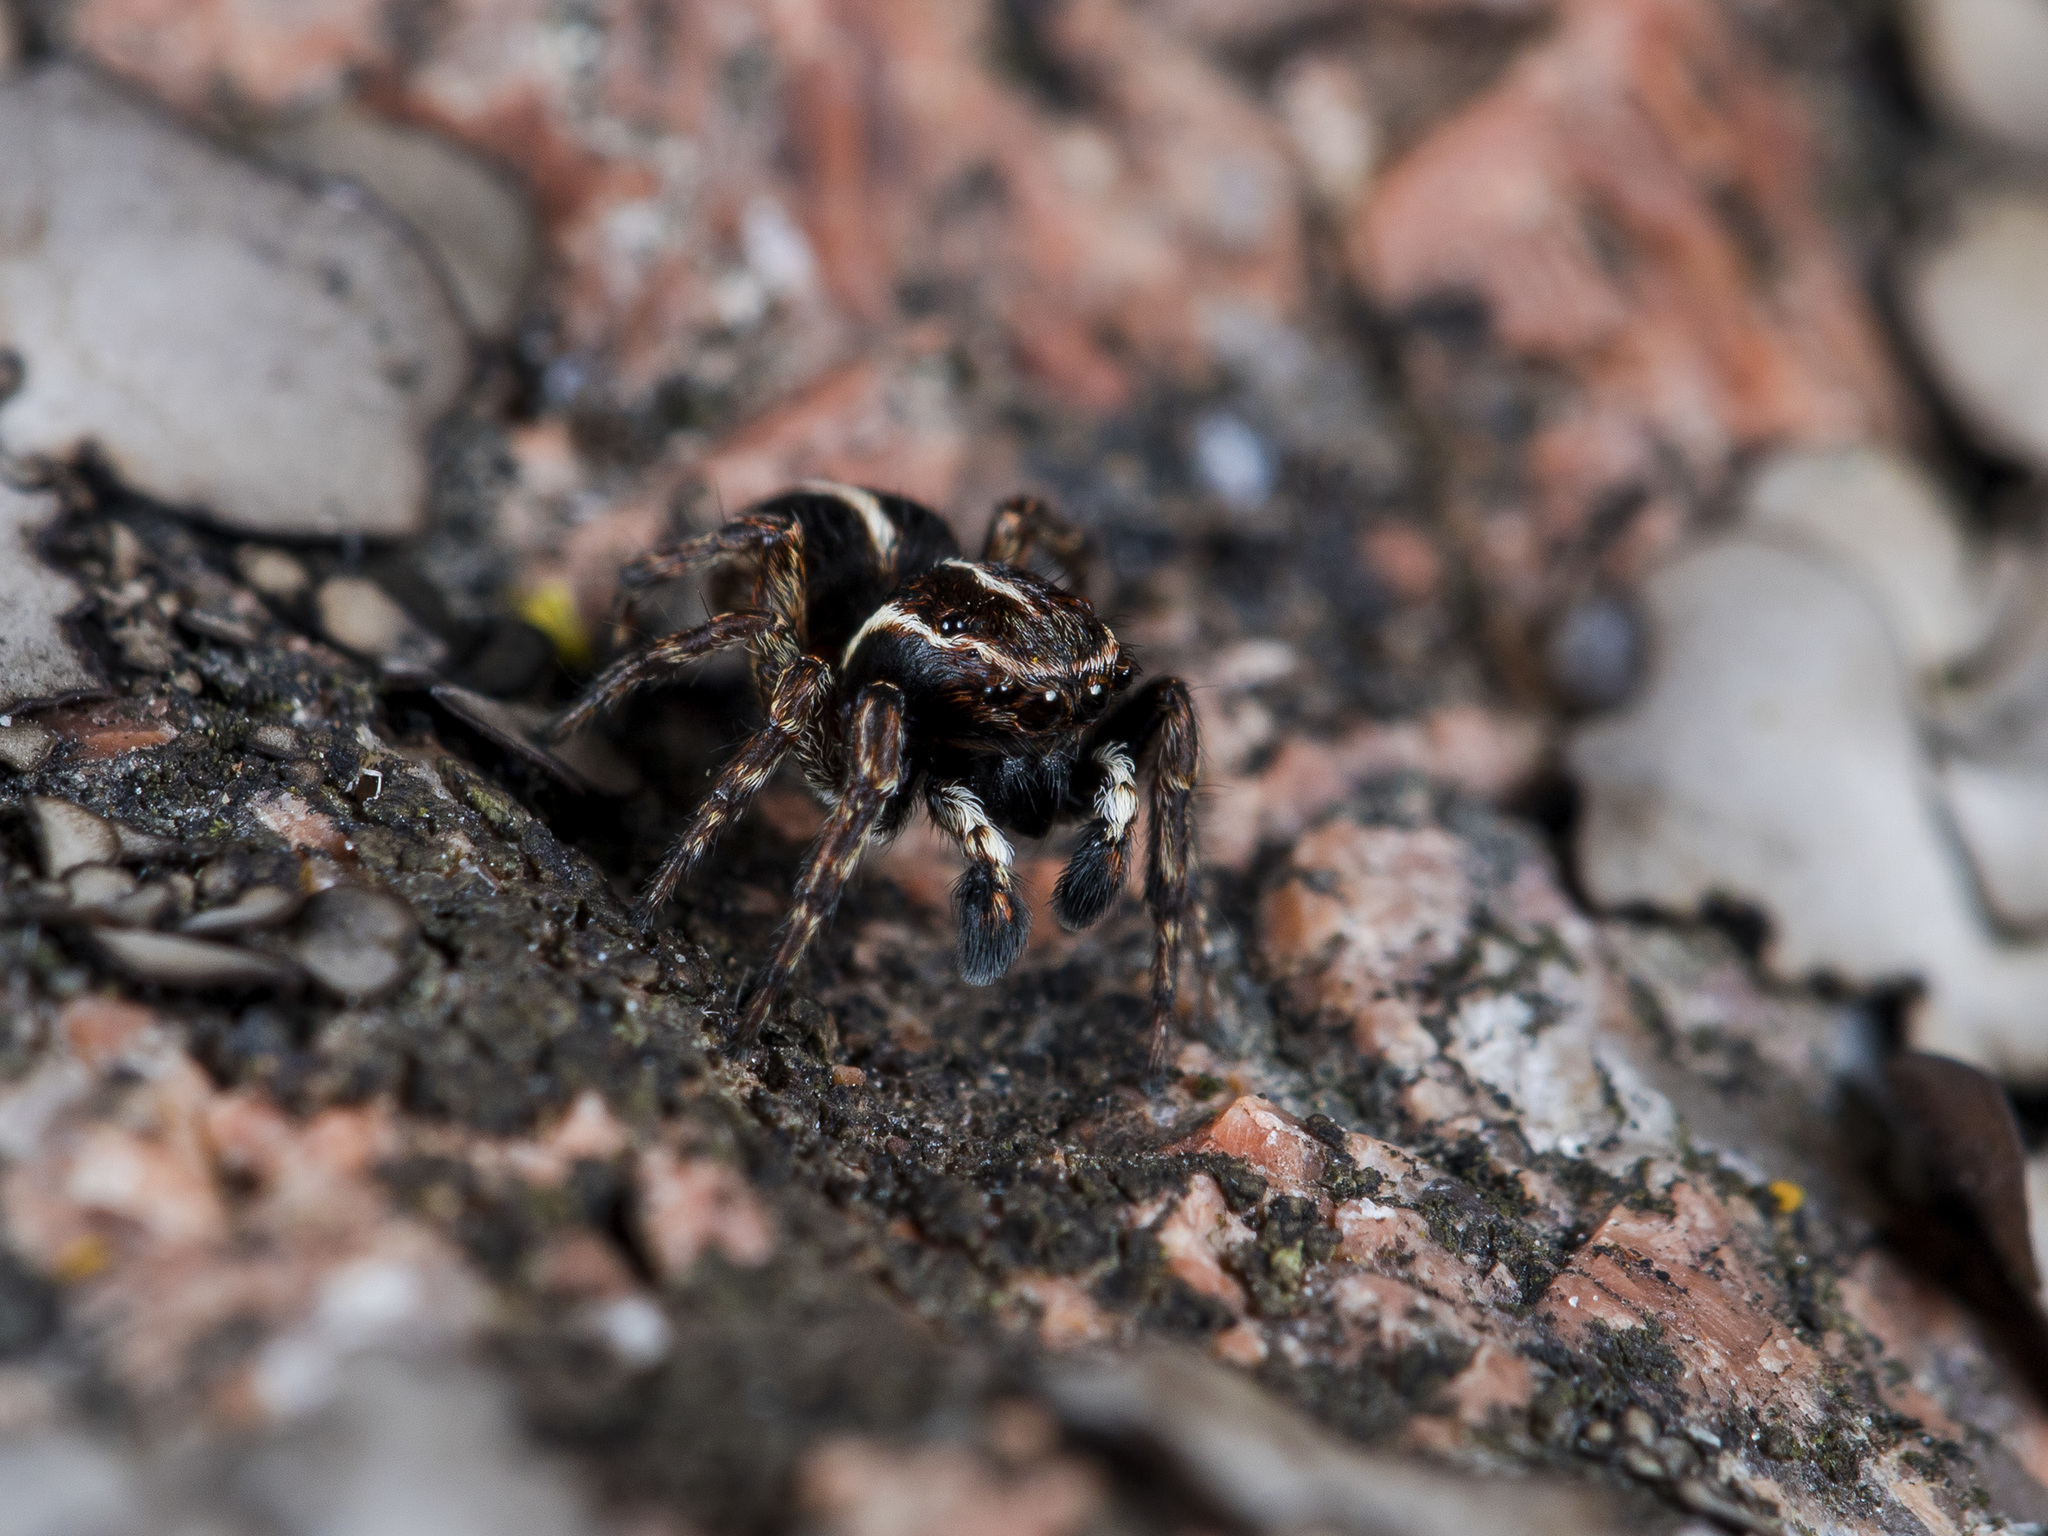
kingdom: Animalia
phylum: Arthropoda
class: Arachnida
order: Araneae
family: Salticidae
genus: Attulus
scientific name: Attulus monstrabilis
